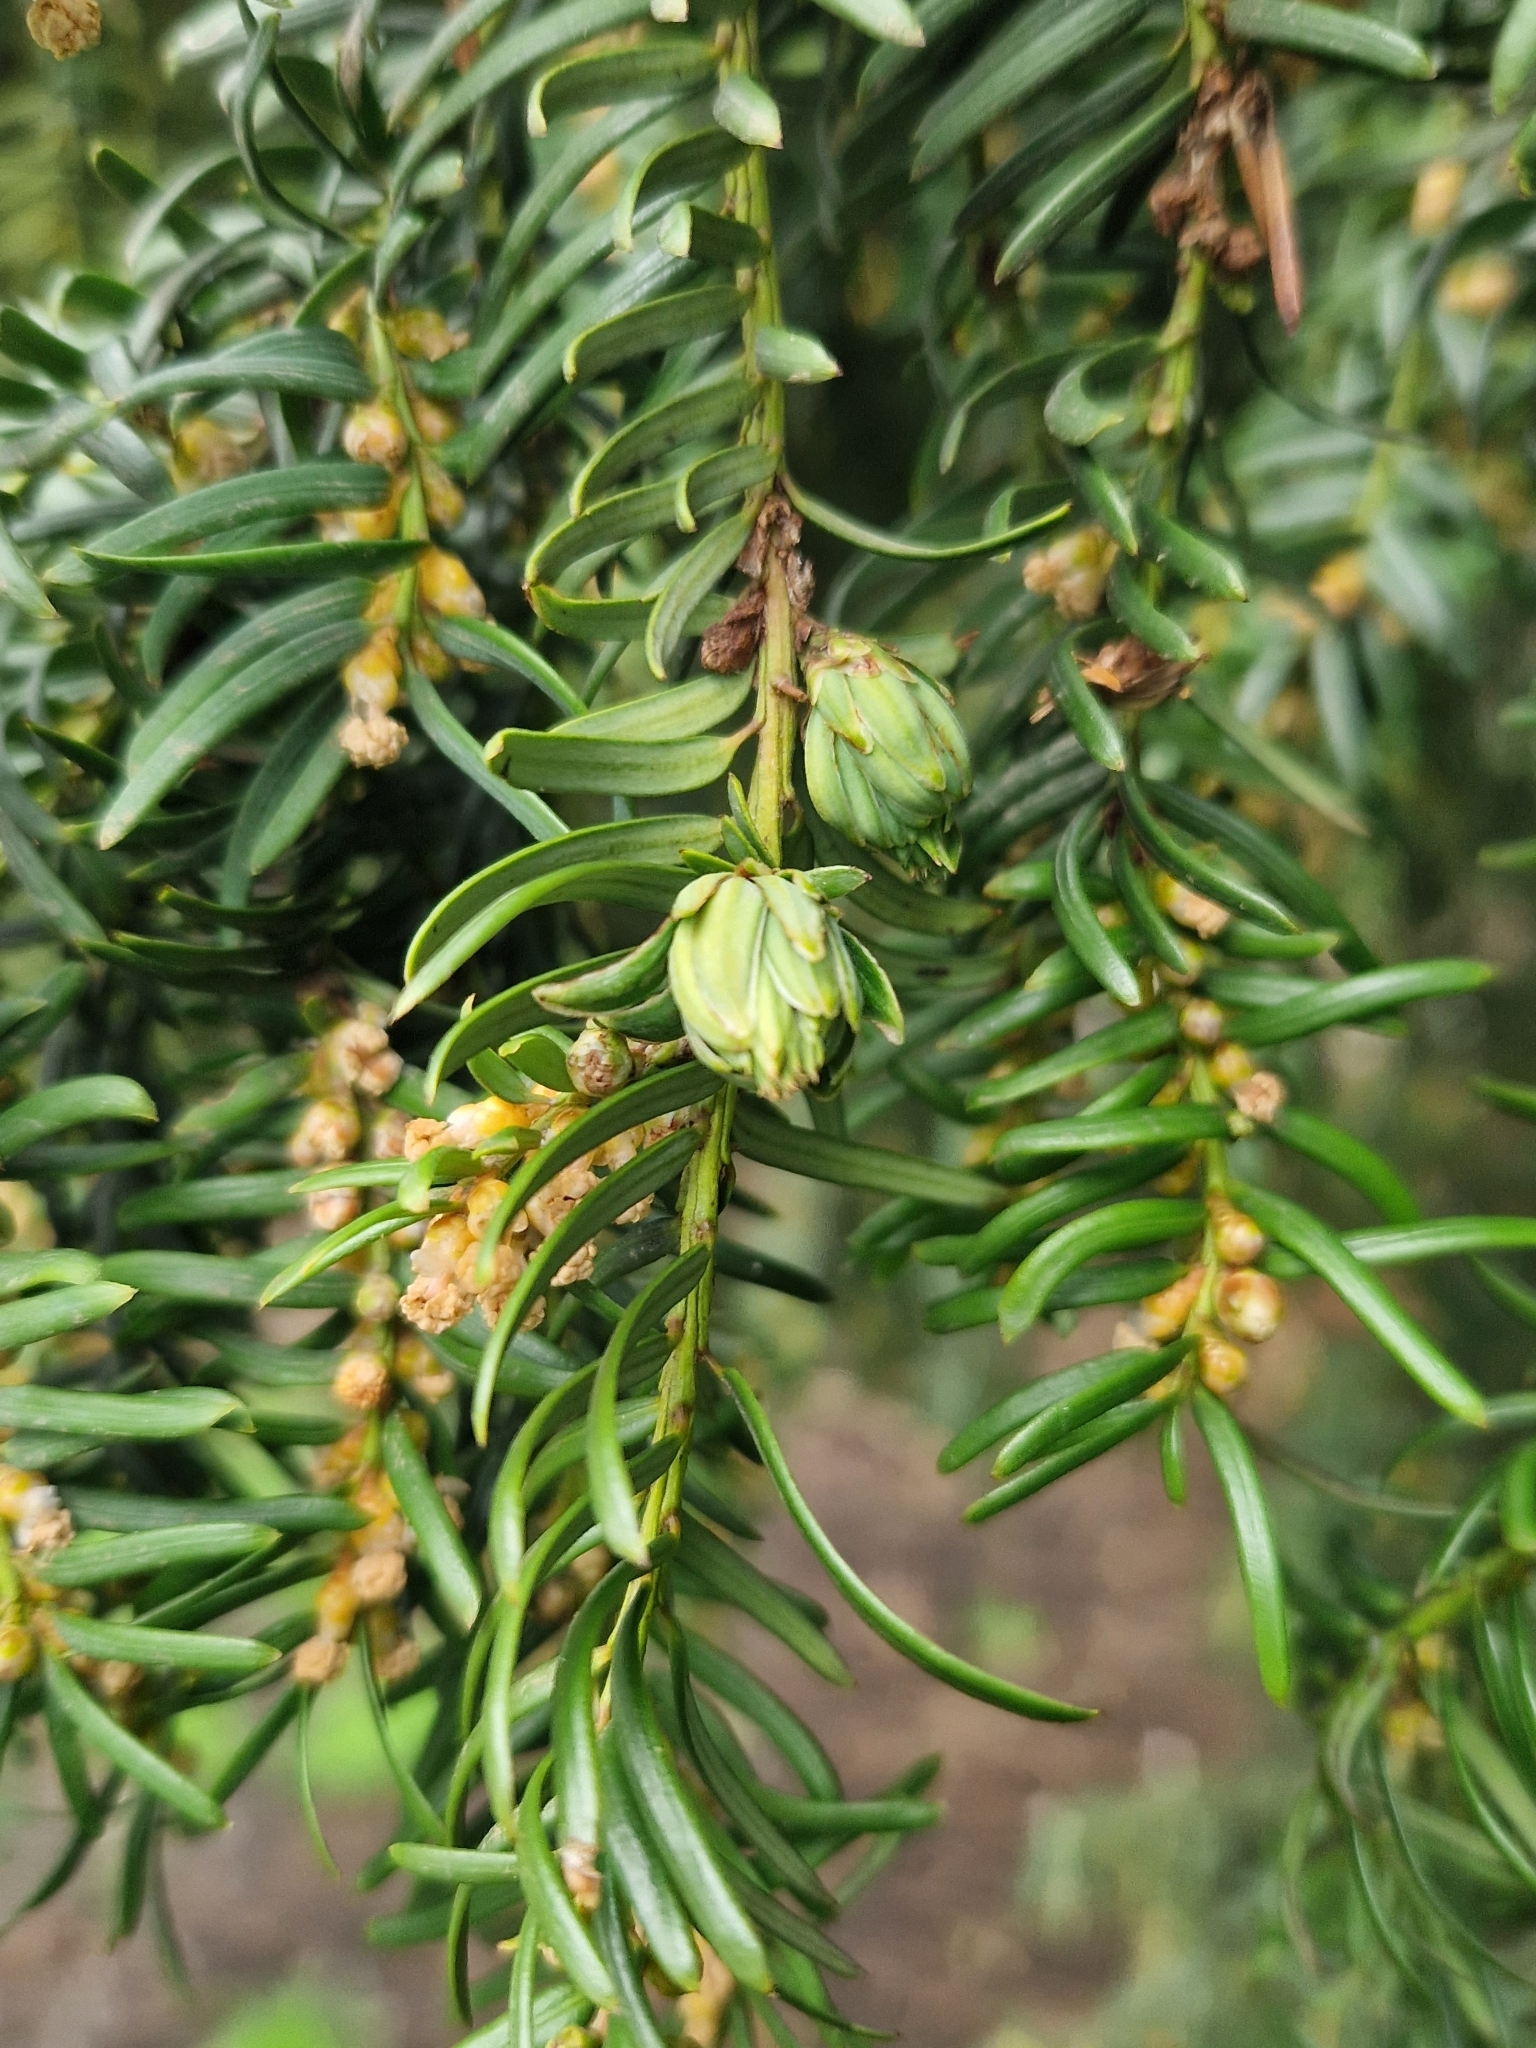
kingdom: Animalia
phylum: Arthropoda
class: Insecta
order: Diptera
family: Cecidomyiidae
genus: Taxomyia
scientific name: Taxomyia taxi
